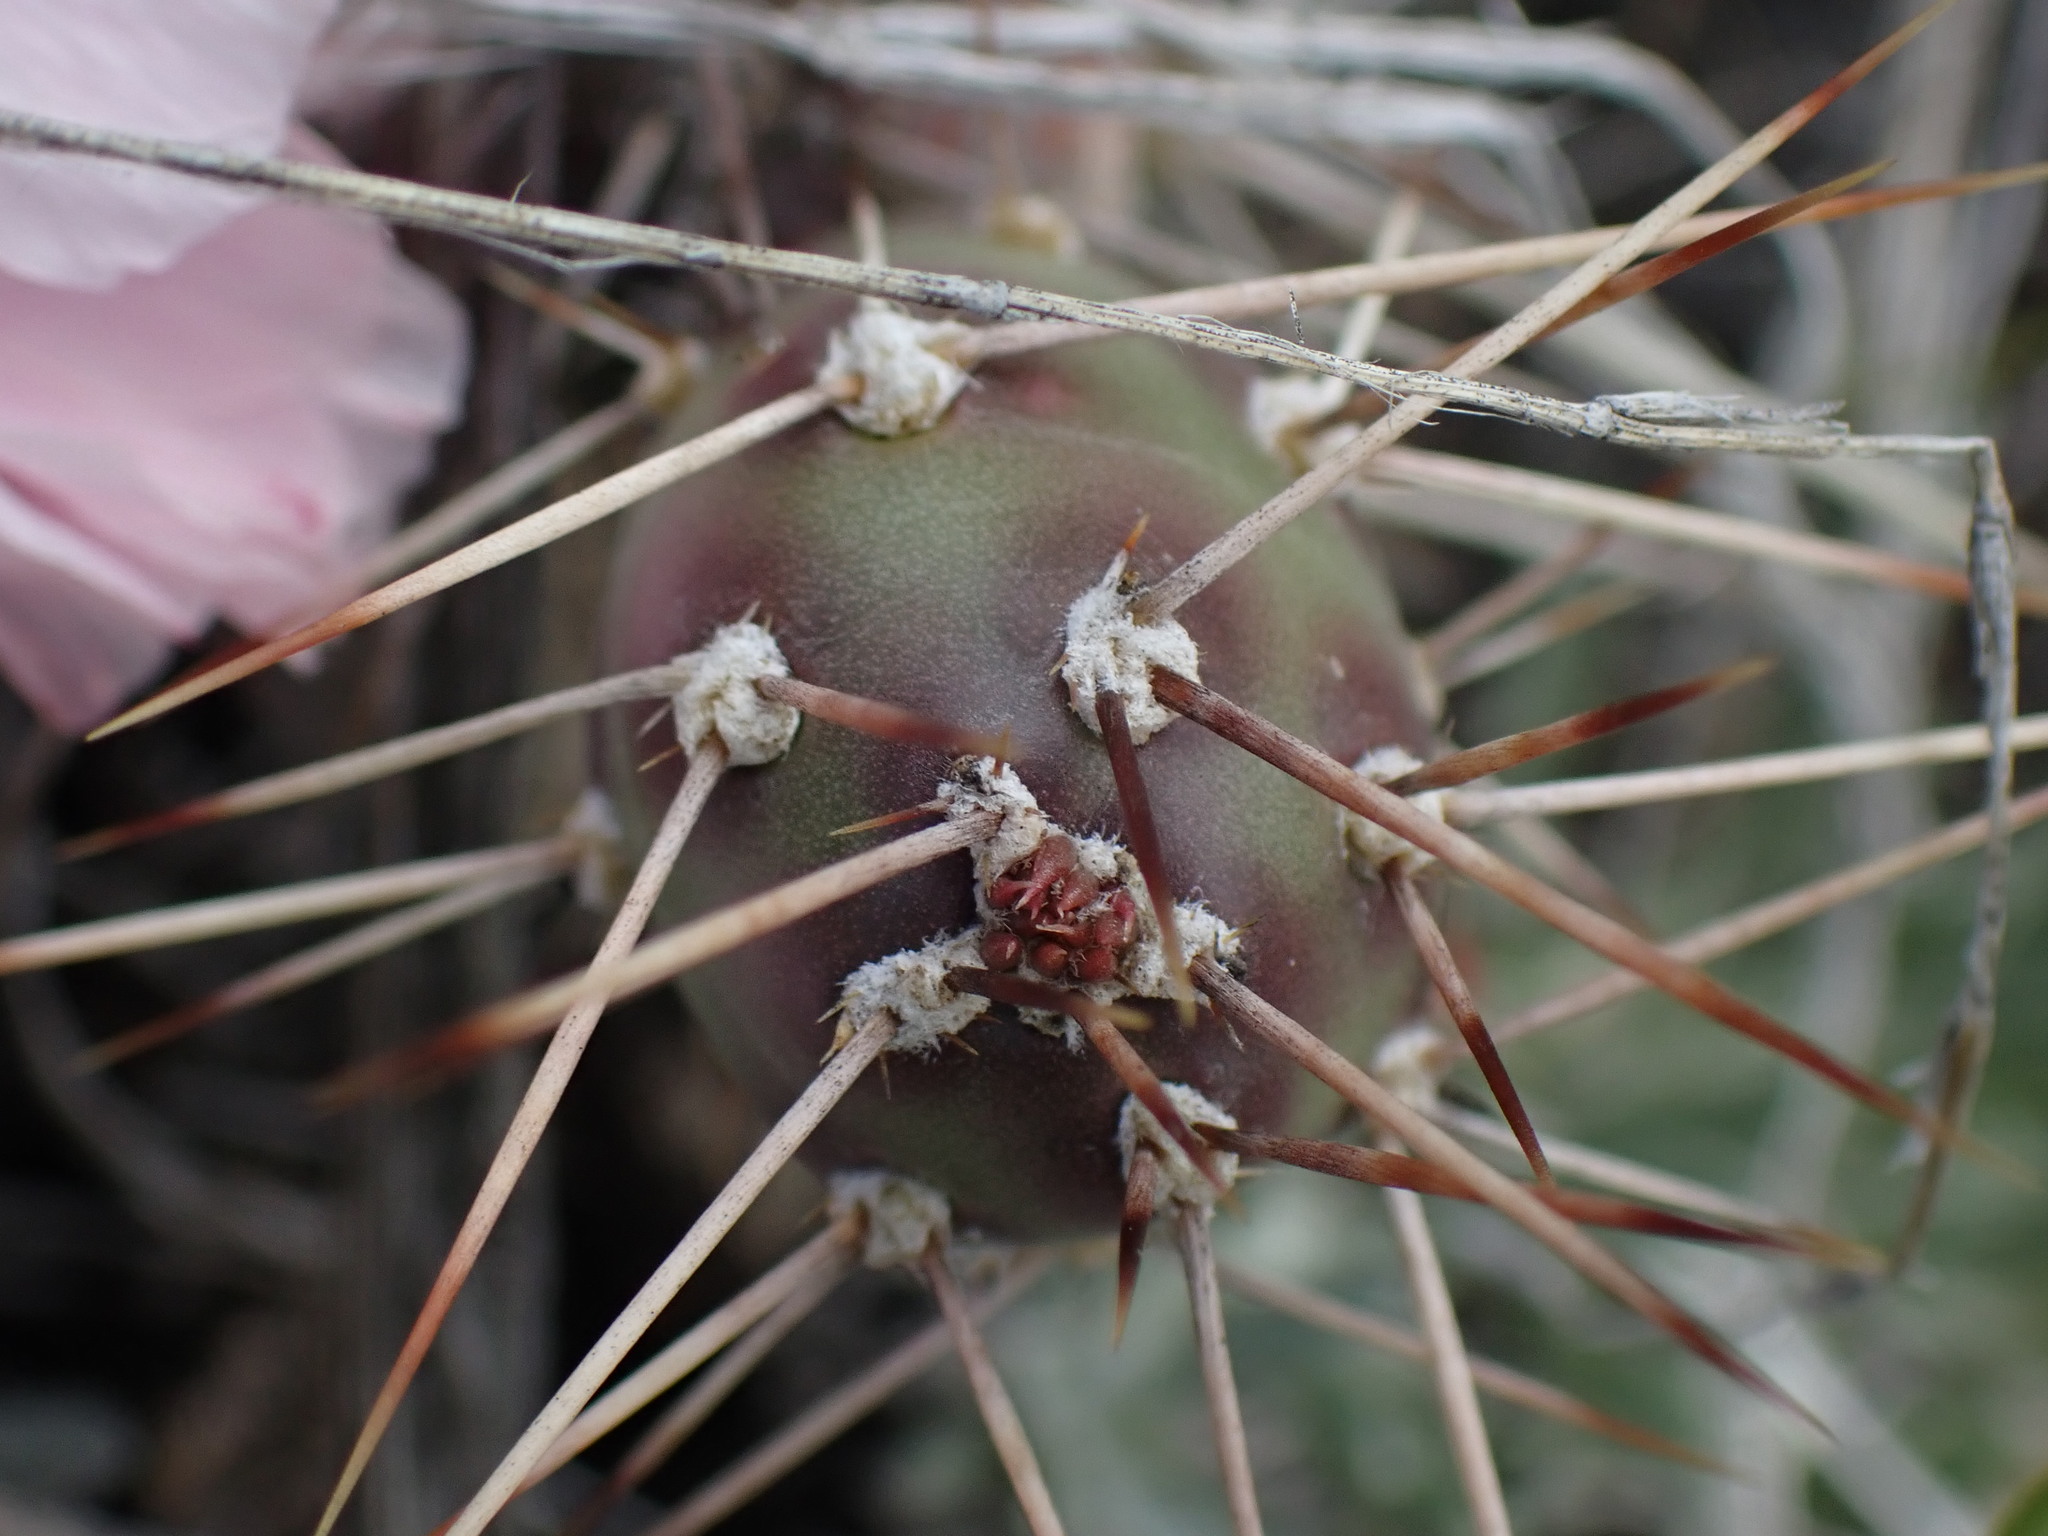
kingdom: Plantae
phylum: Tracheophyta
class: Magnoliopsida
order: Caryophyllales
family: Cactaceae
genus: Opuntia
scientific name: Opuntia fragilis
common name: Brittle cactus
